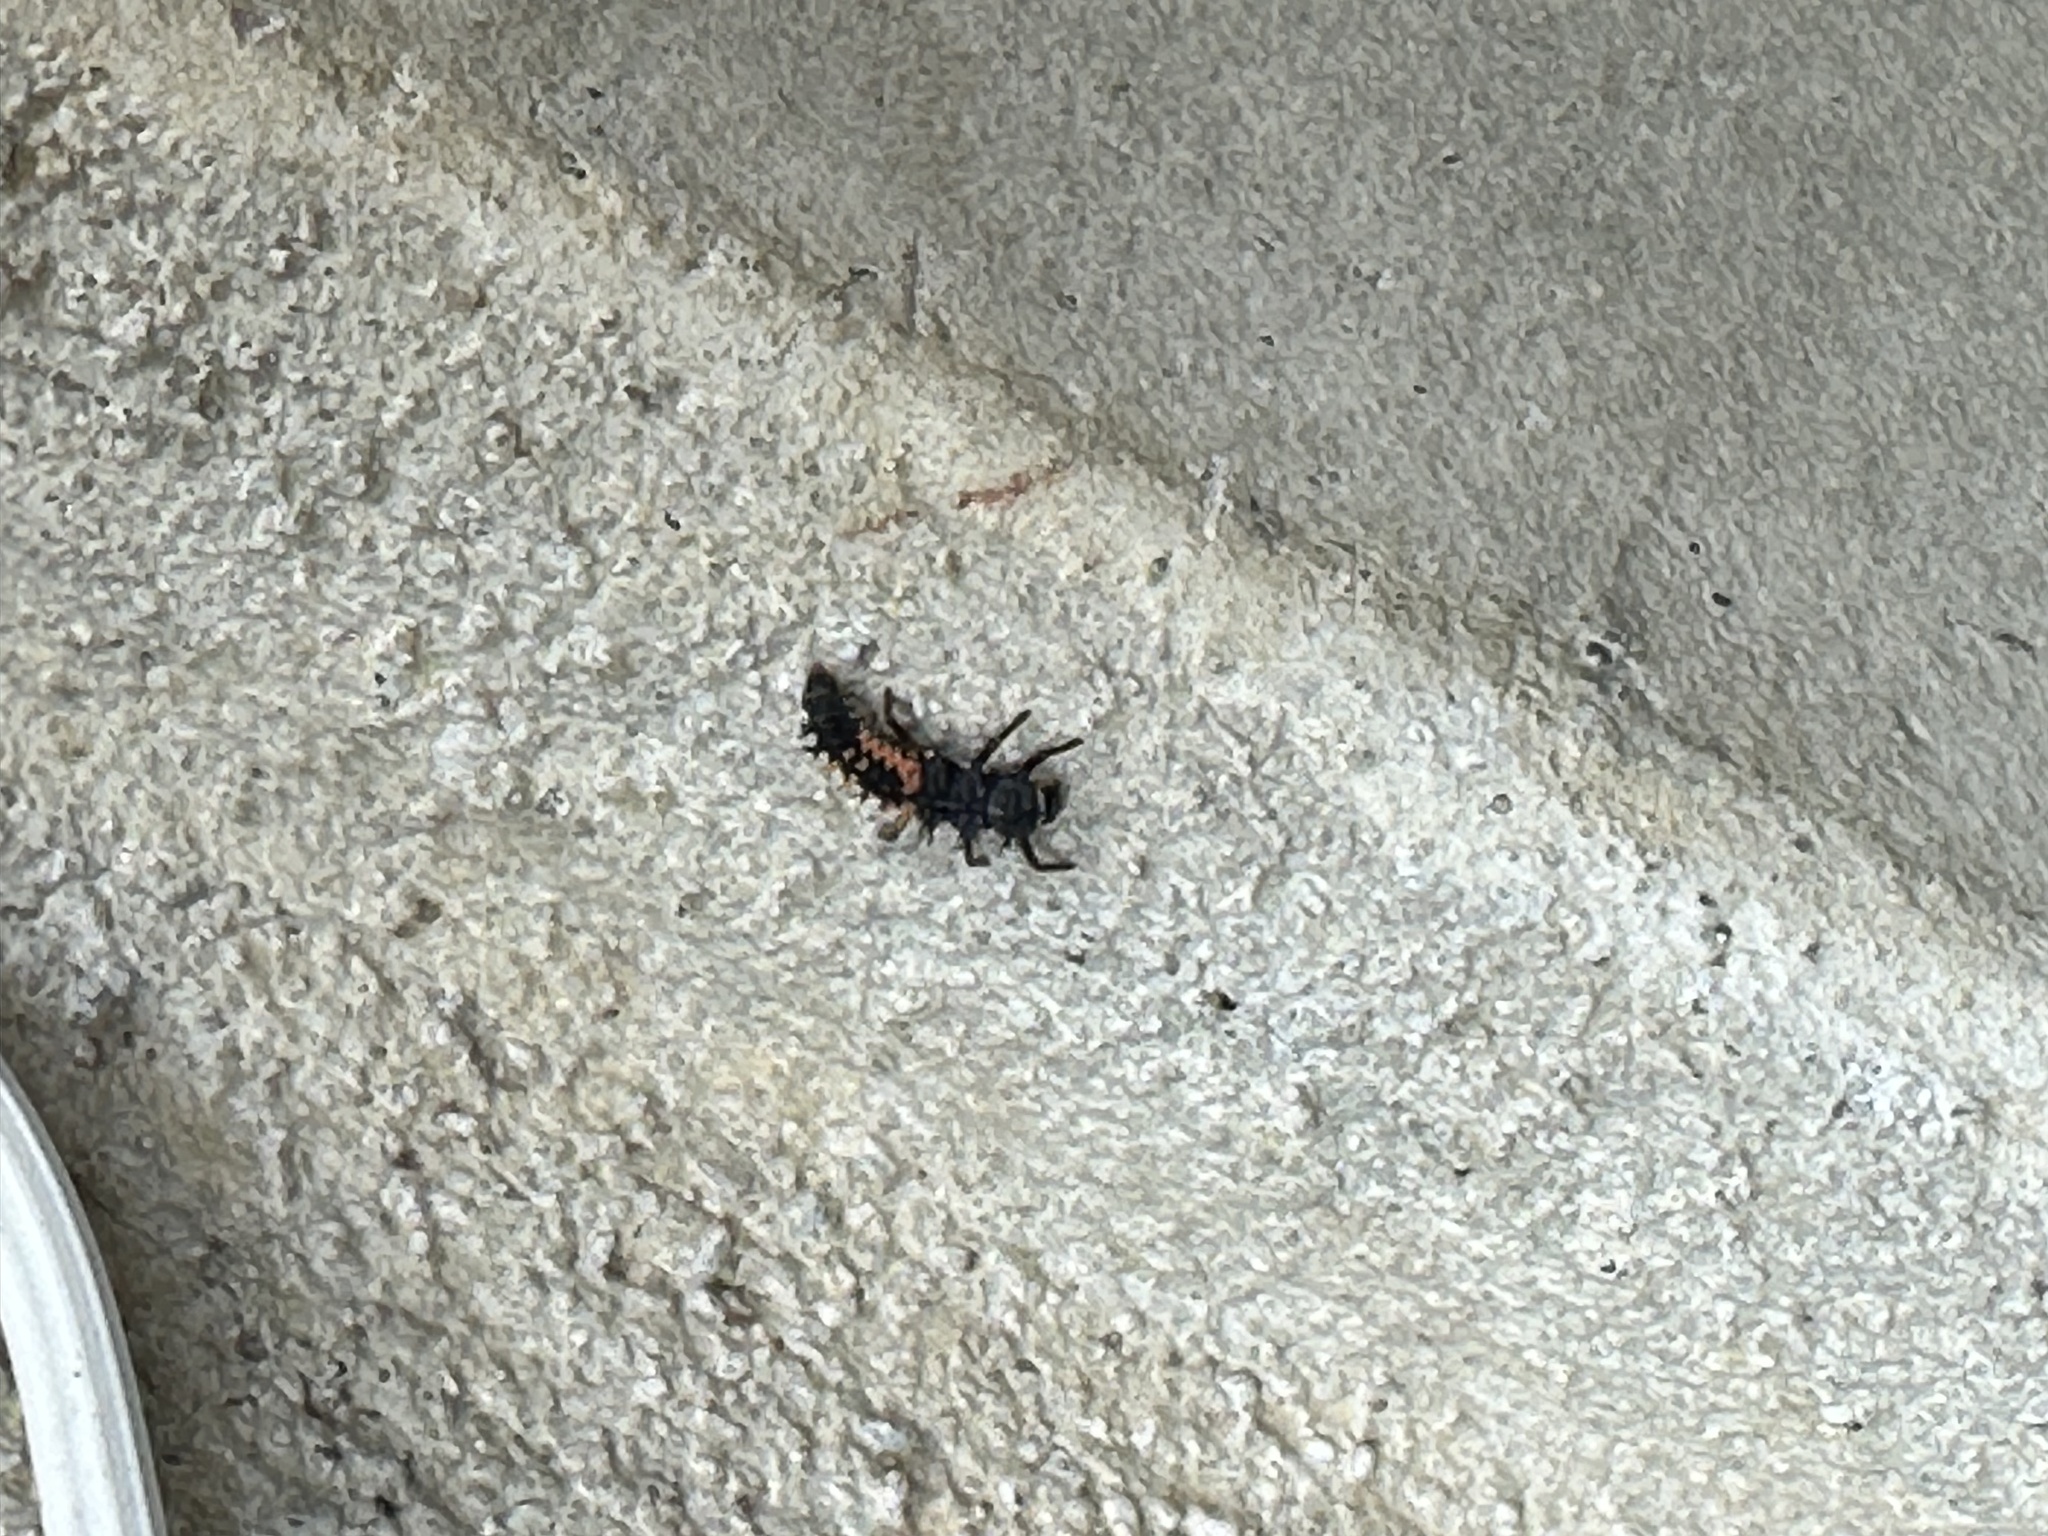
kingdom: Animalia
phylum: Arthropoda
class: Insecta
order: Coleoptera
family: Coccinellidae
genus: Harmonia
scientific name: Harmonia axyridis
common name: Harlequin ladybird
